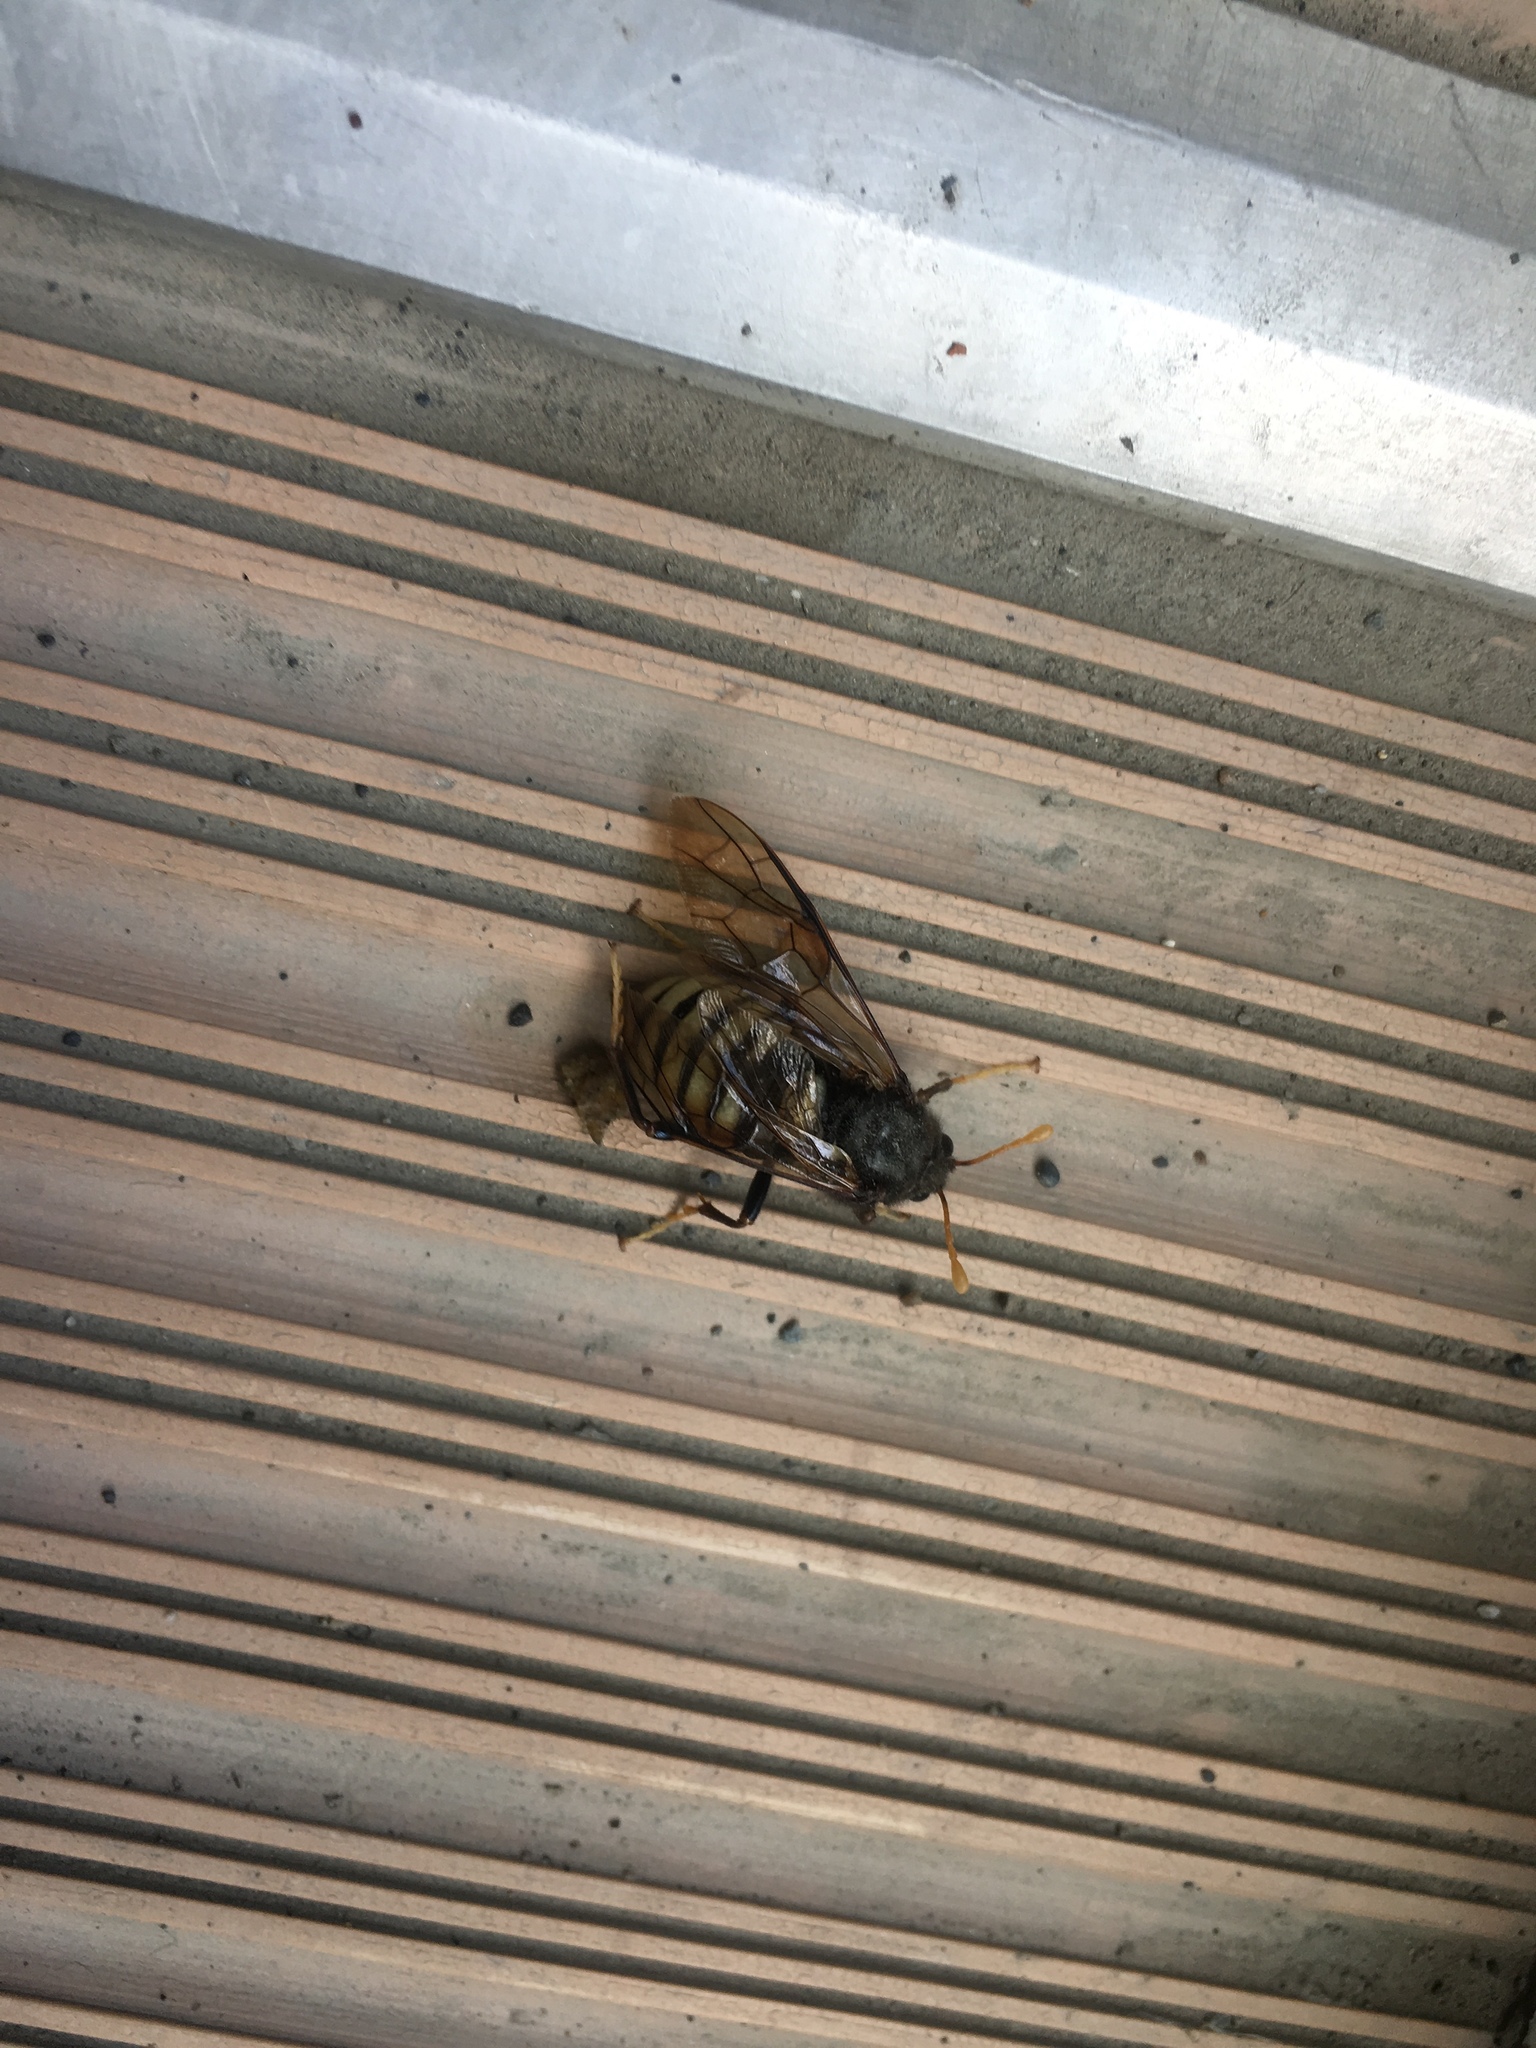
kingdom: Animalia
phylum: Arthropoda
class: Insecta
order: Hymenoptera
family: Cimbicidae
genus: Cimbex
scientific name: Cimbex americana
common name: Elm sawfly
